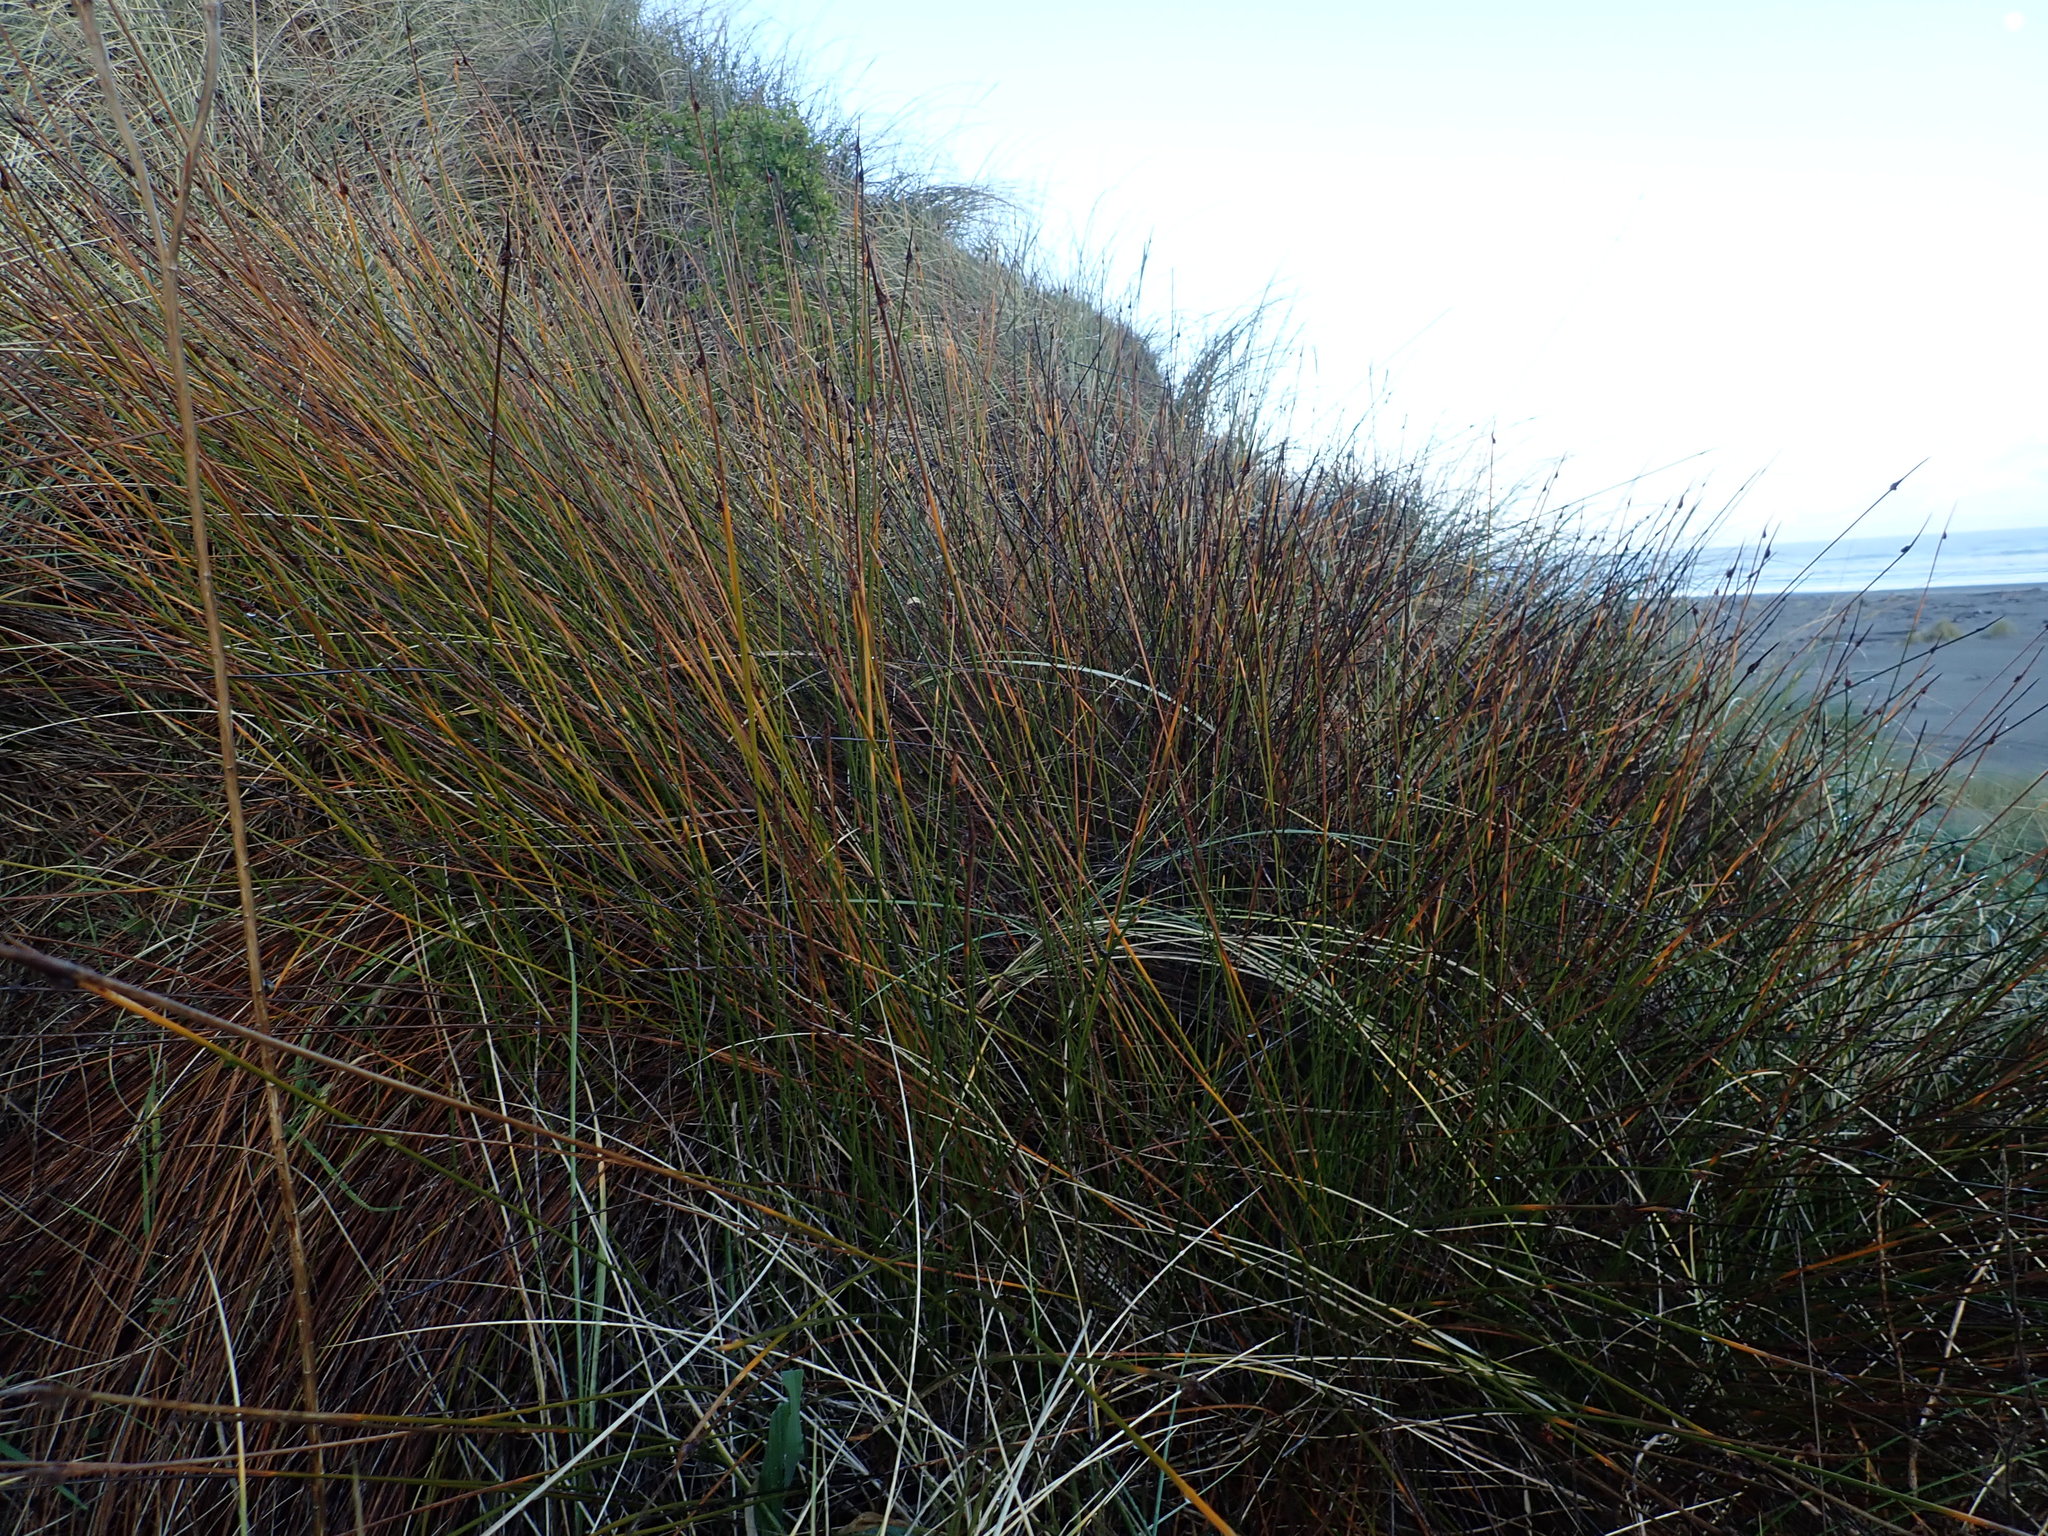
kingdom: Plantae
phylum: Tracheophyta
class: Liliopsida
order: Poales
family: Cyperaceae
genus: Ficinia
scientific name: Ficinia nodosa
